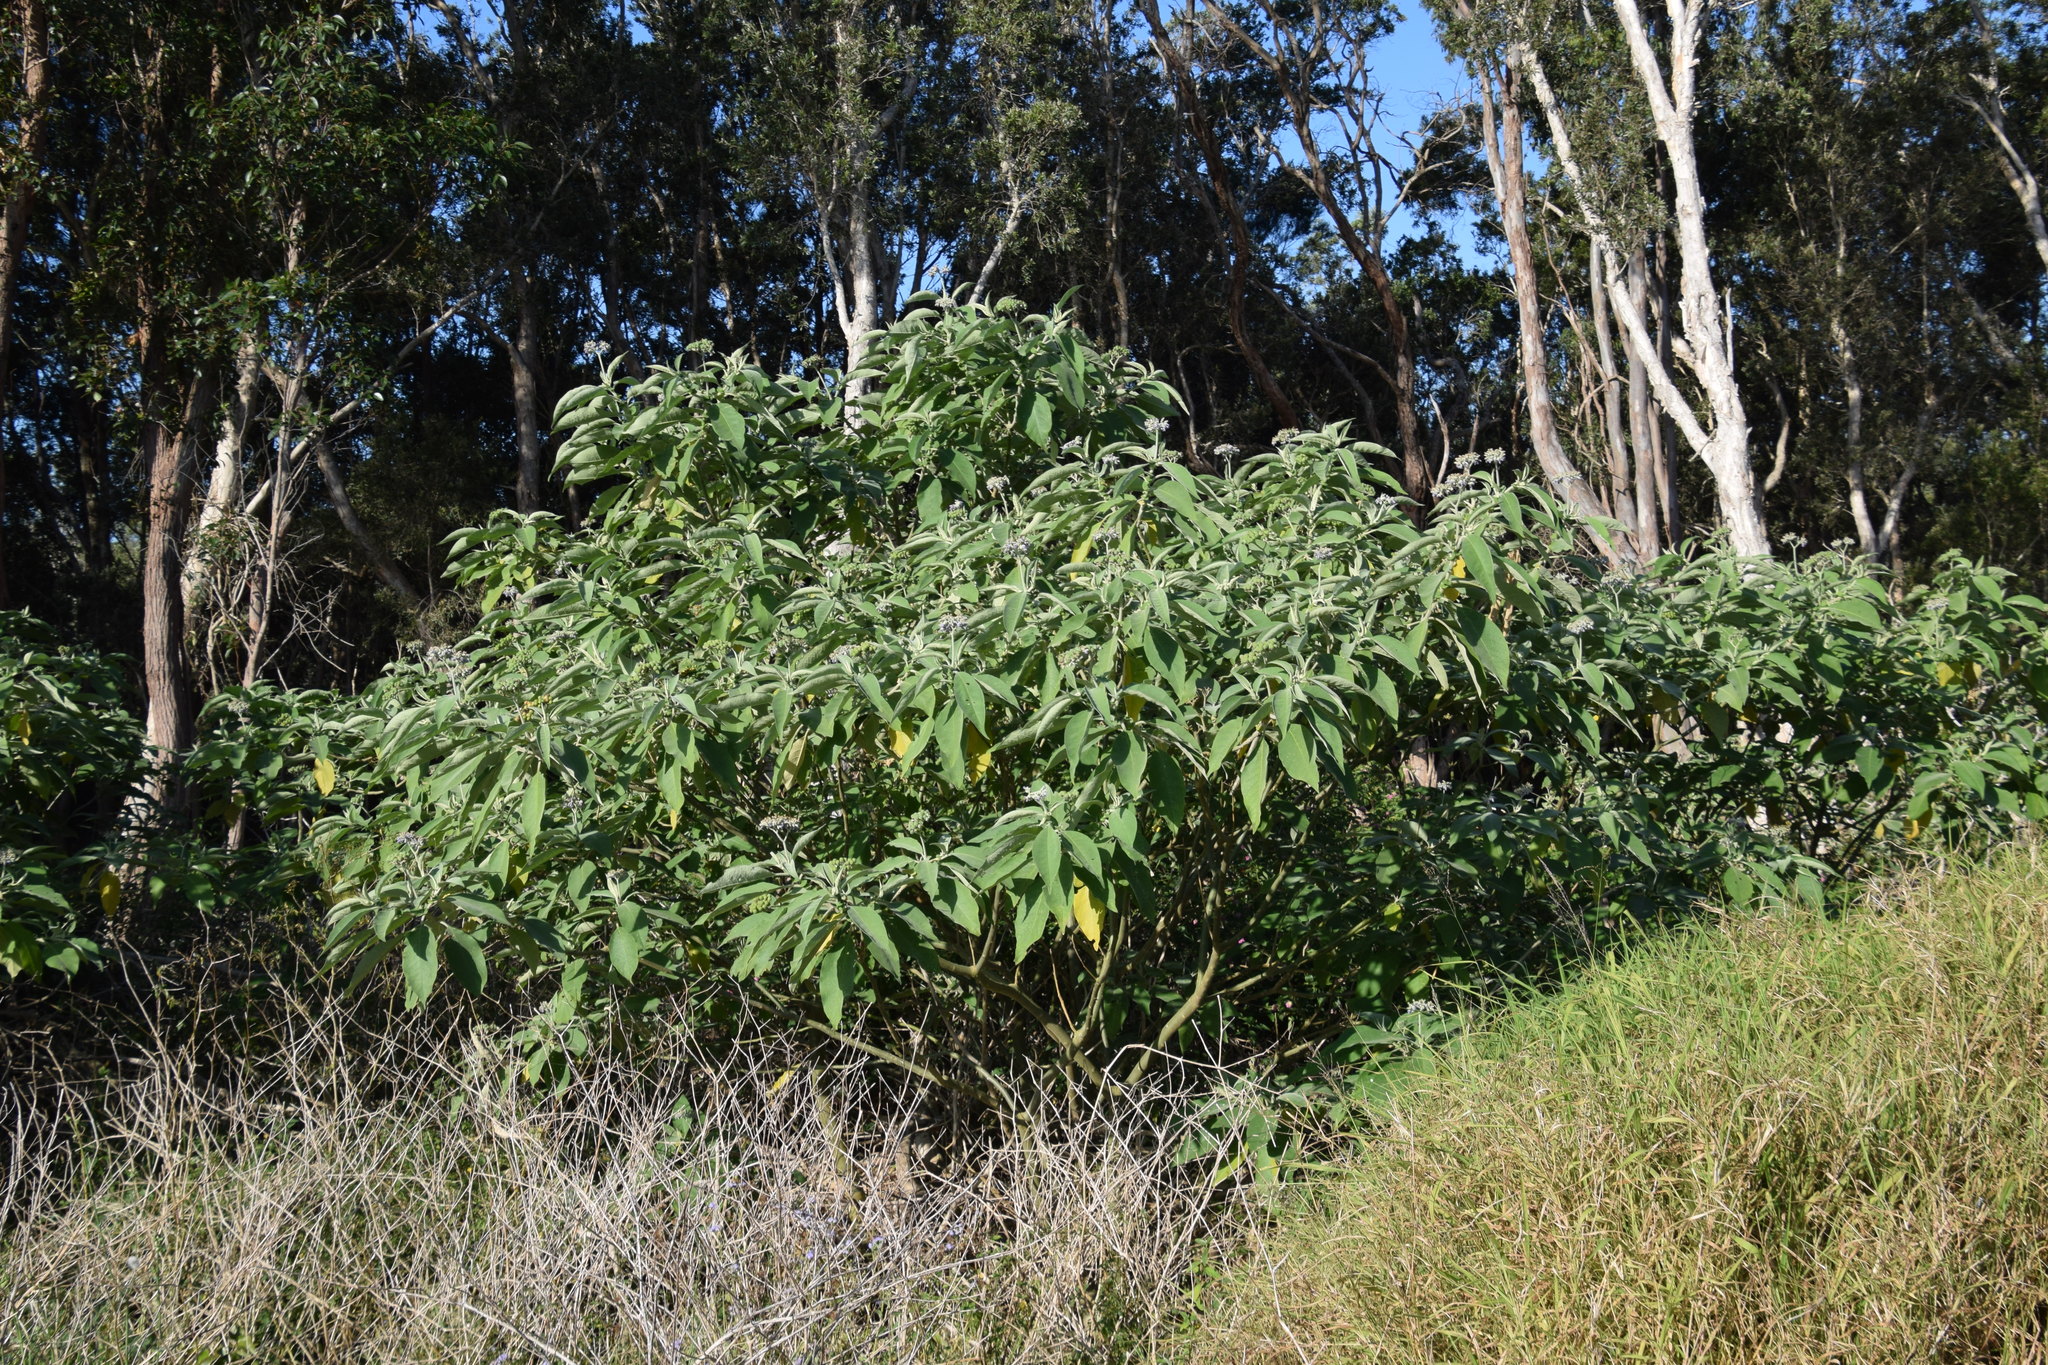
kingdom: Plantae
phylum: Tracheophyta
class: Magnoliopsida
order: Solanales
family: Solanaceae
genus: Solanum
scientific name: Solanum mauritianum
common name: Earleaf nightshade
